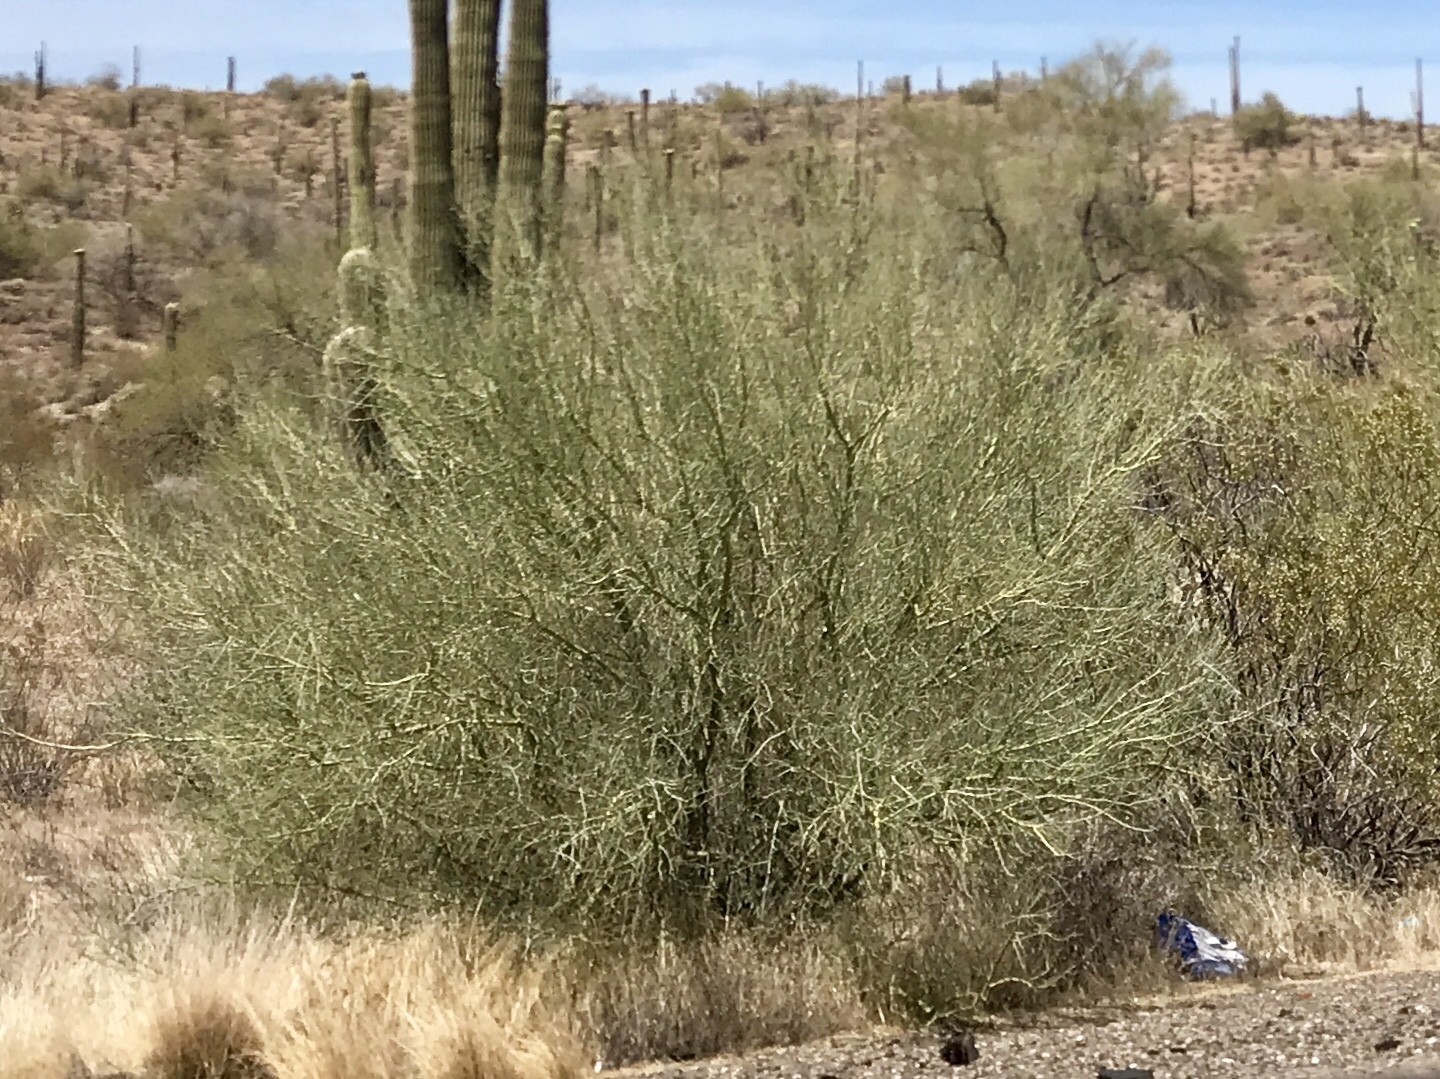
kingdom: Plantae
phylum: Tracheophyta
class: Magnoliopsida
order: Fabales
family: Fabaceae
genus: Parkinsonia
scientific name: Parkinsonia microphylla
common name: Yellow paloverde
